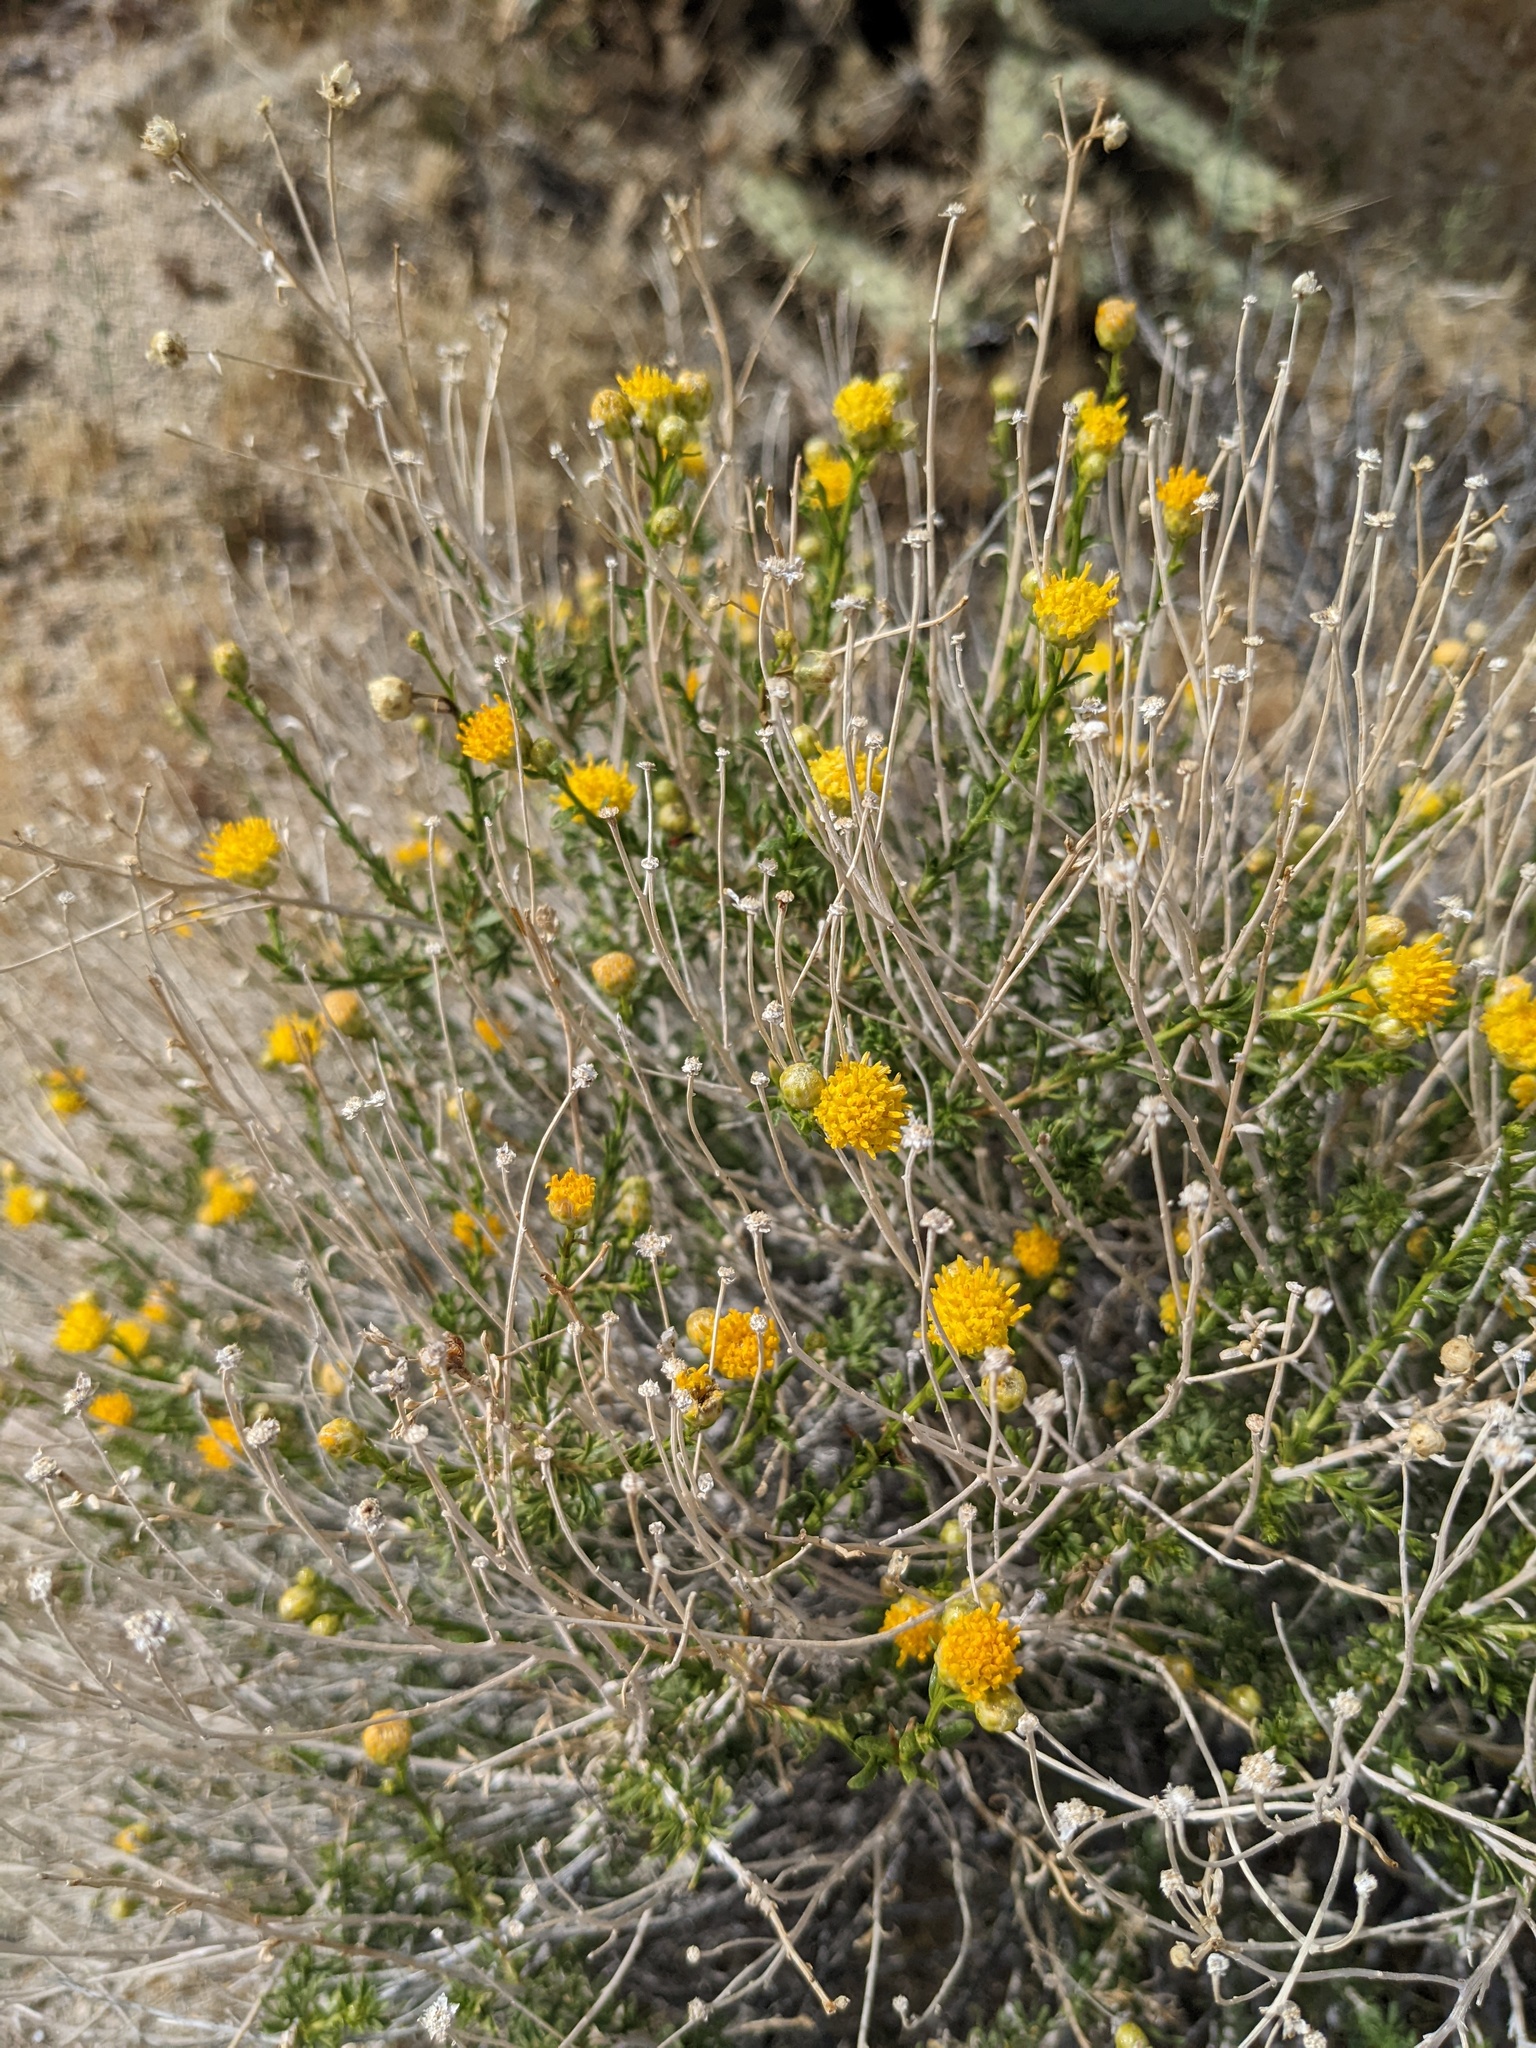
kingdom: Plantae
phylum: Tracheophyta
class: Magnoliopsida
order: Asterales
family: Asteraceae
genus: Acamptopappus
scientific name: Acamptopappus sphaerocephalus
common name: Goldenhead
